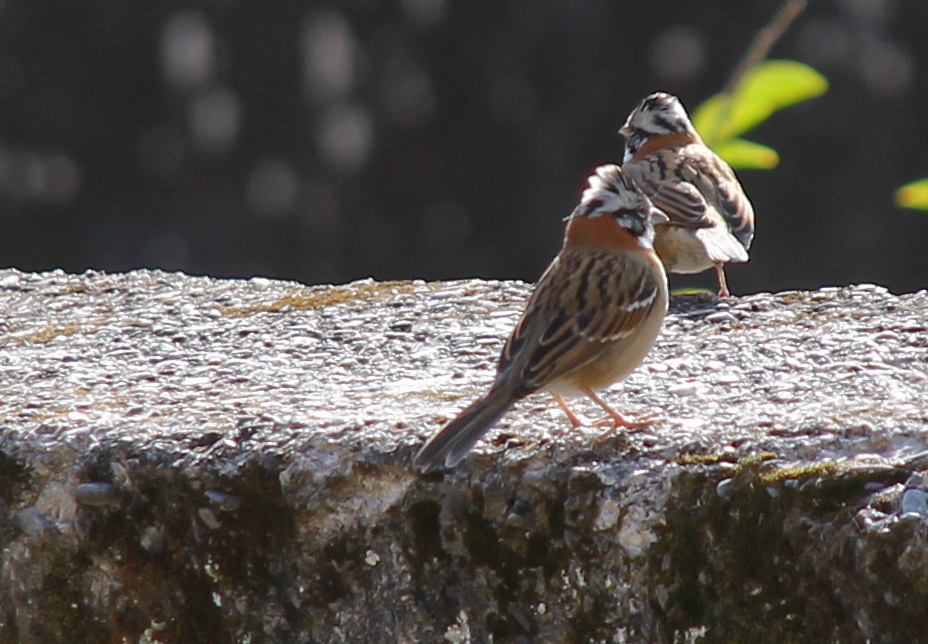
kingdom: Animalia
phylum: Chordata
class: Aves
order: Passeriformes
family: Passerellidae
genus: Zonotrichia
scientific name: Zonotrichia capensis
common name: Rufous-collared sparrow
